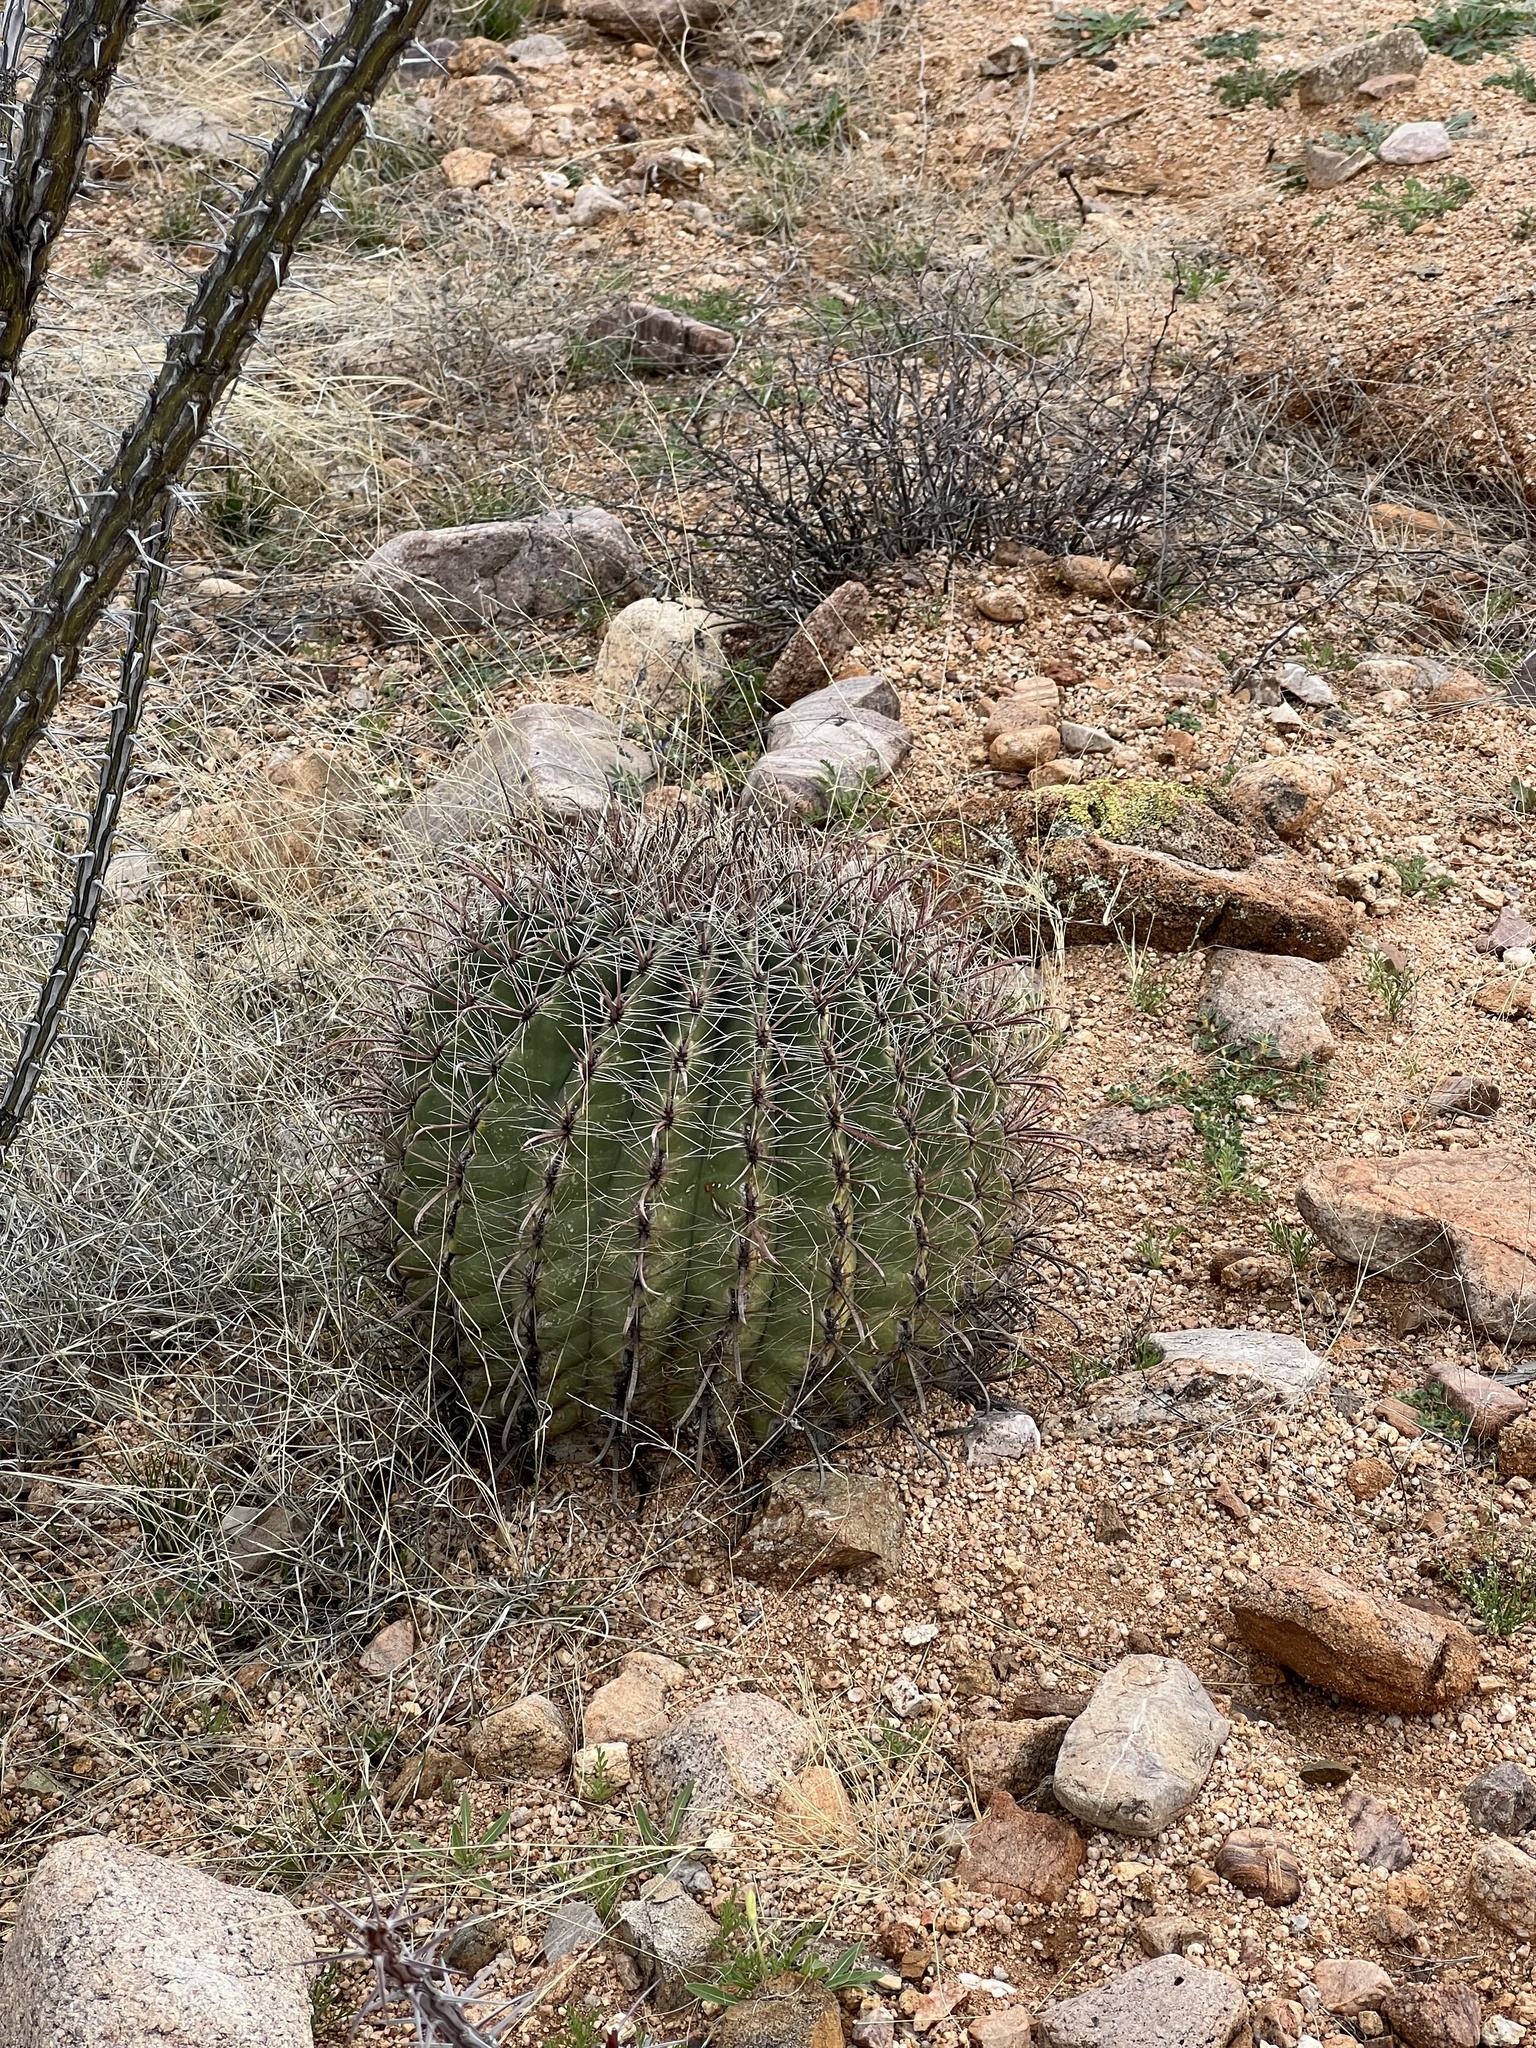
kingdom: Plantae
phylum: Tracheophyta
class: Magnoliopsida
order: Caryophyllales
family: Cactaceae
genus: Ferocactus
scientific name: Ferocactus wislizeni
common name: Candy barrel cactus
